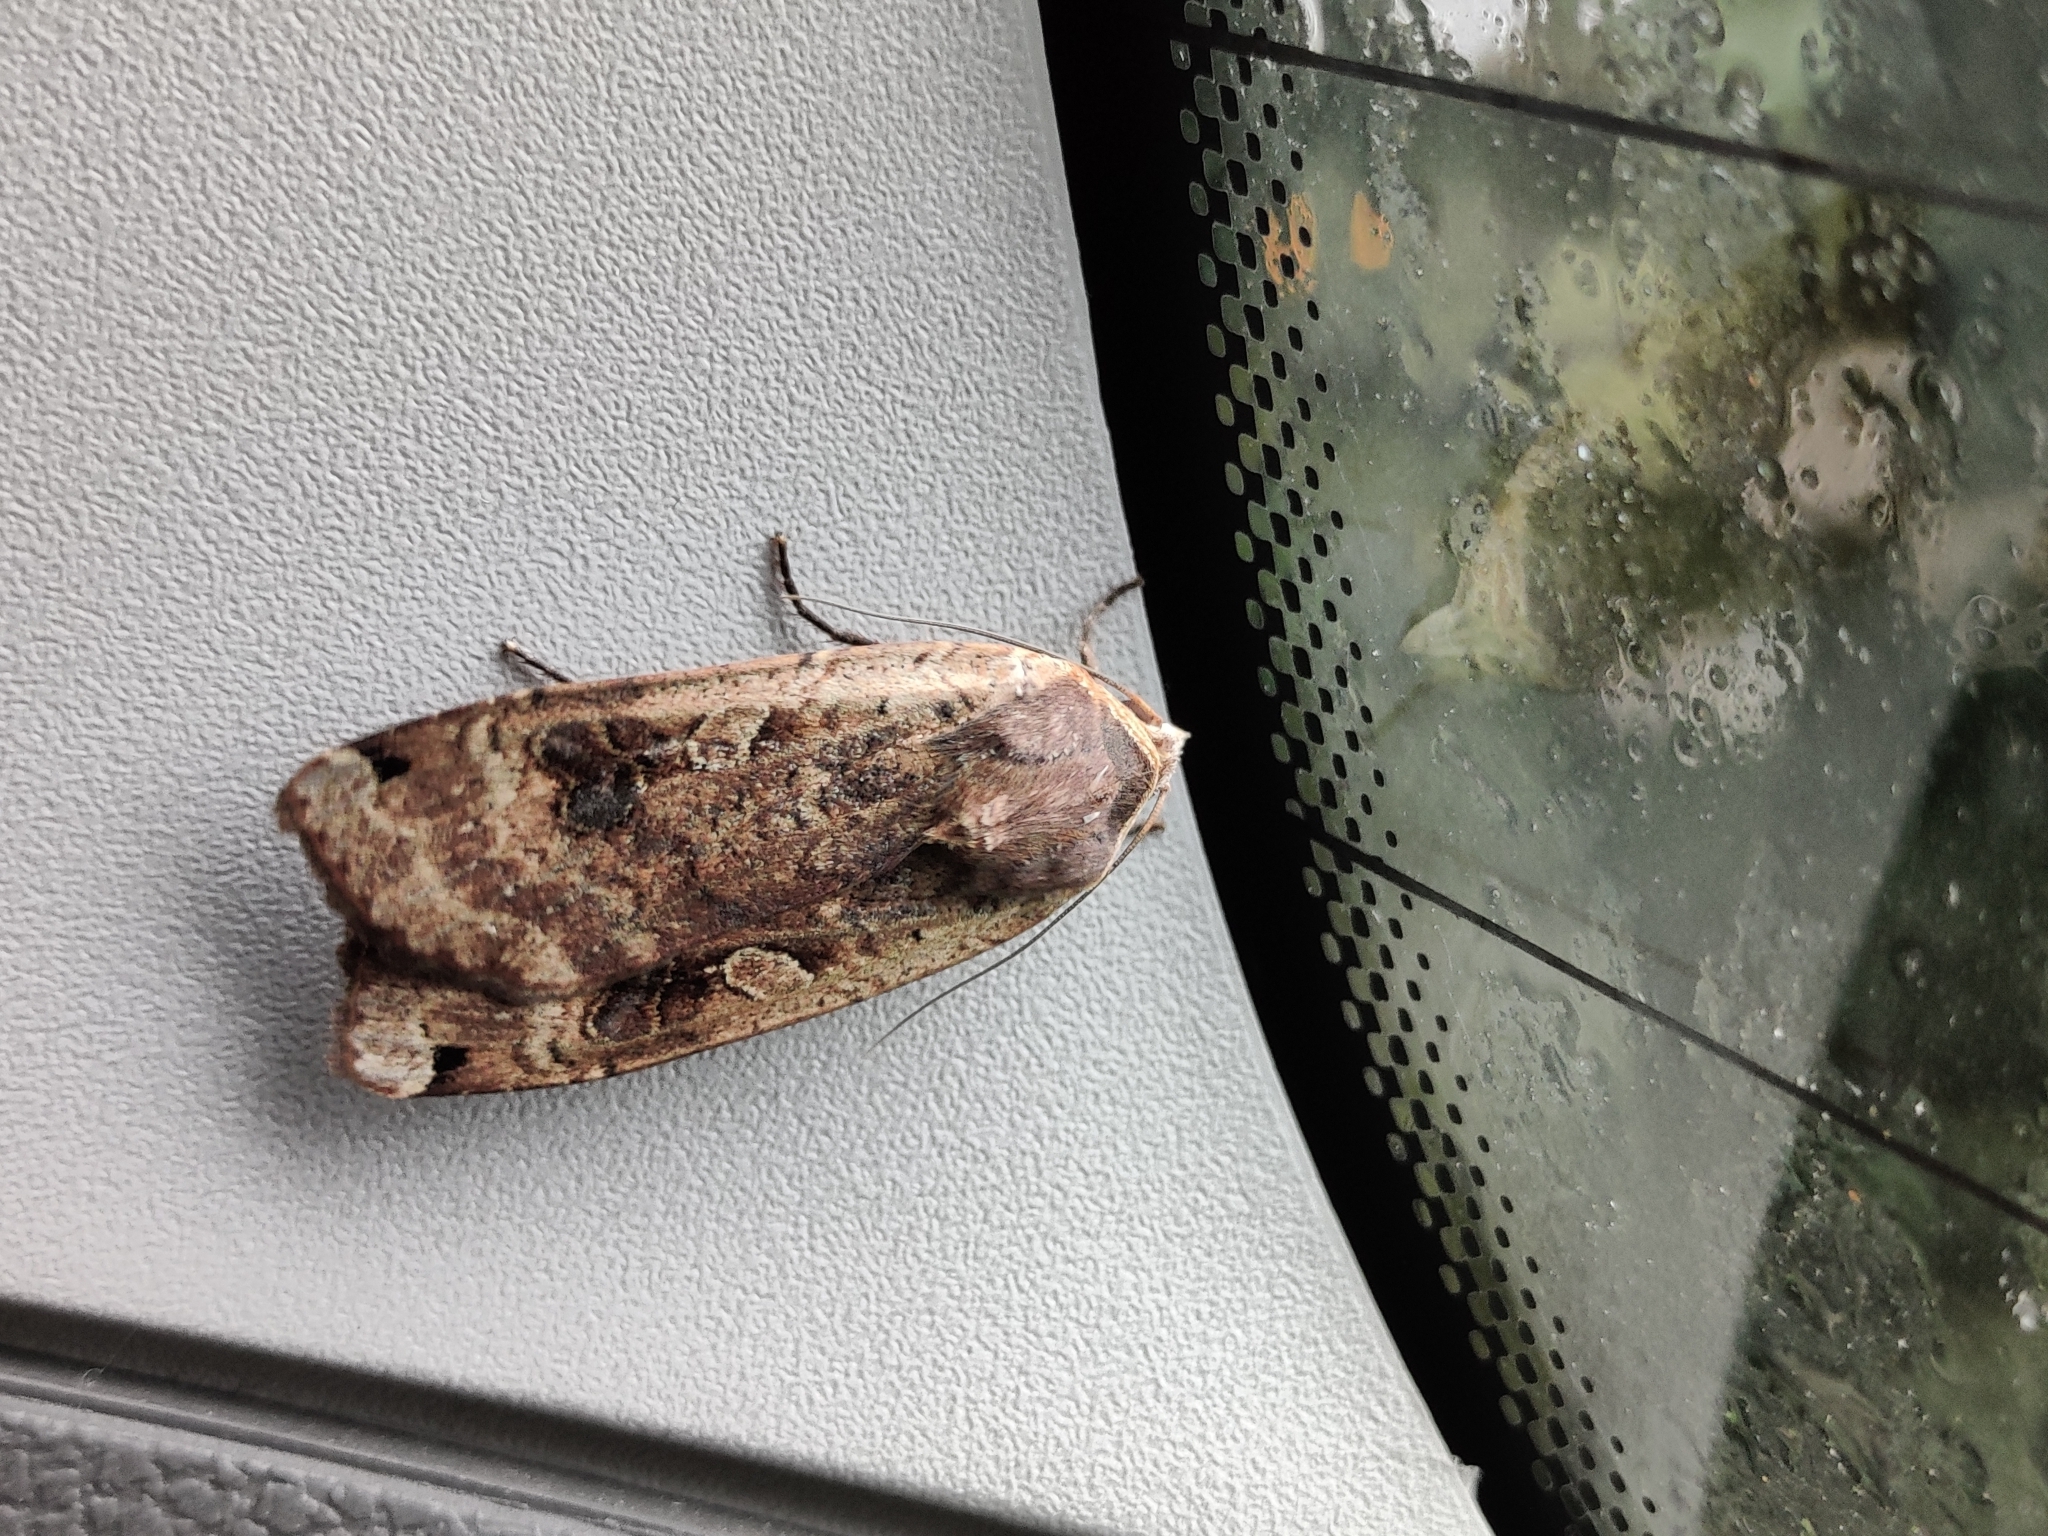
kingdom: Animalia
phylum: Arthropoda
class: Insecta
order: Lepidoptera
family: Noctuidae
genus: Noctua
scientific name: Noctua pronuba
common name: Large yellow underwing
